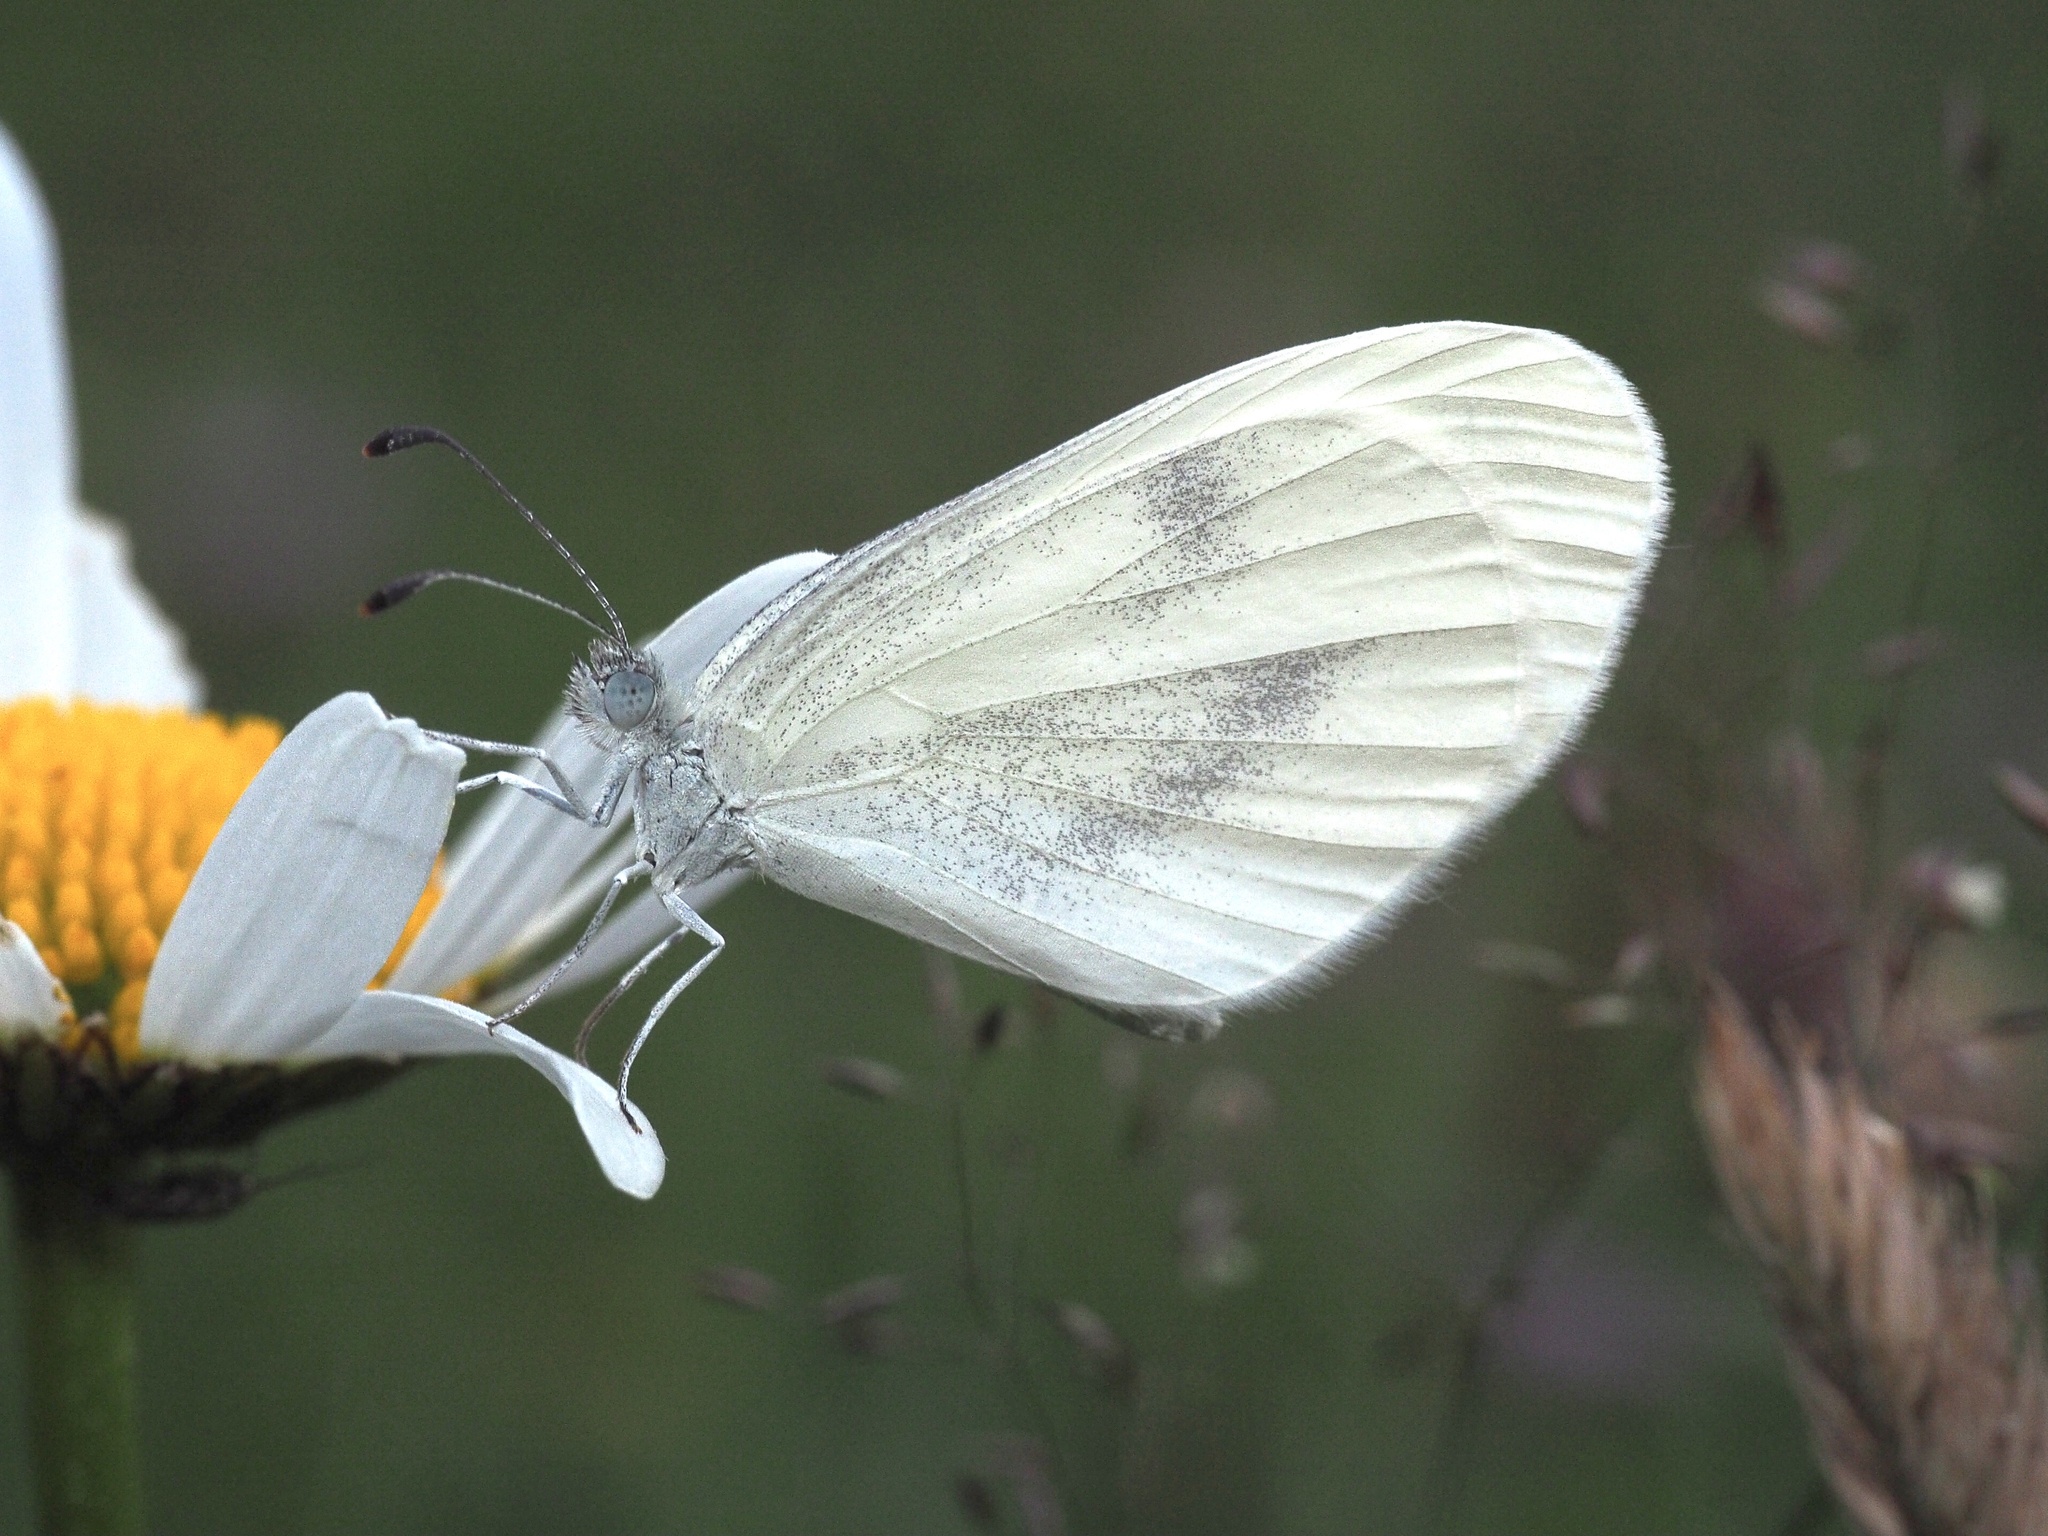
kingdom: Animalia
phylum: Arthropoda
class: Insecta
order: Lepidoptera
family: Pieridae
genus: Leptidea
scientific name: Leptidea
